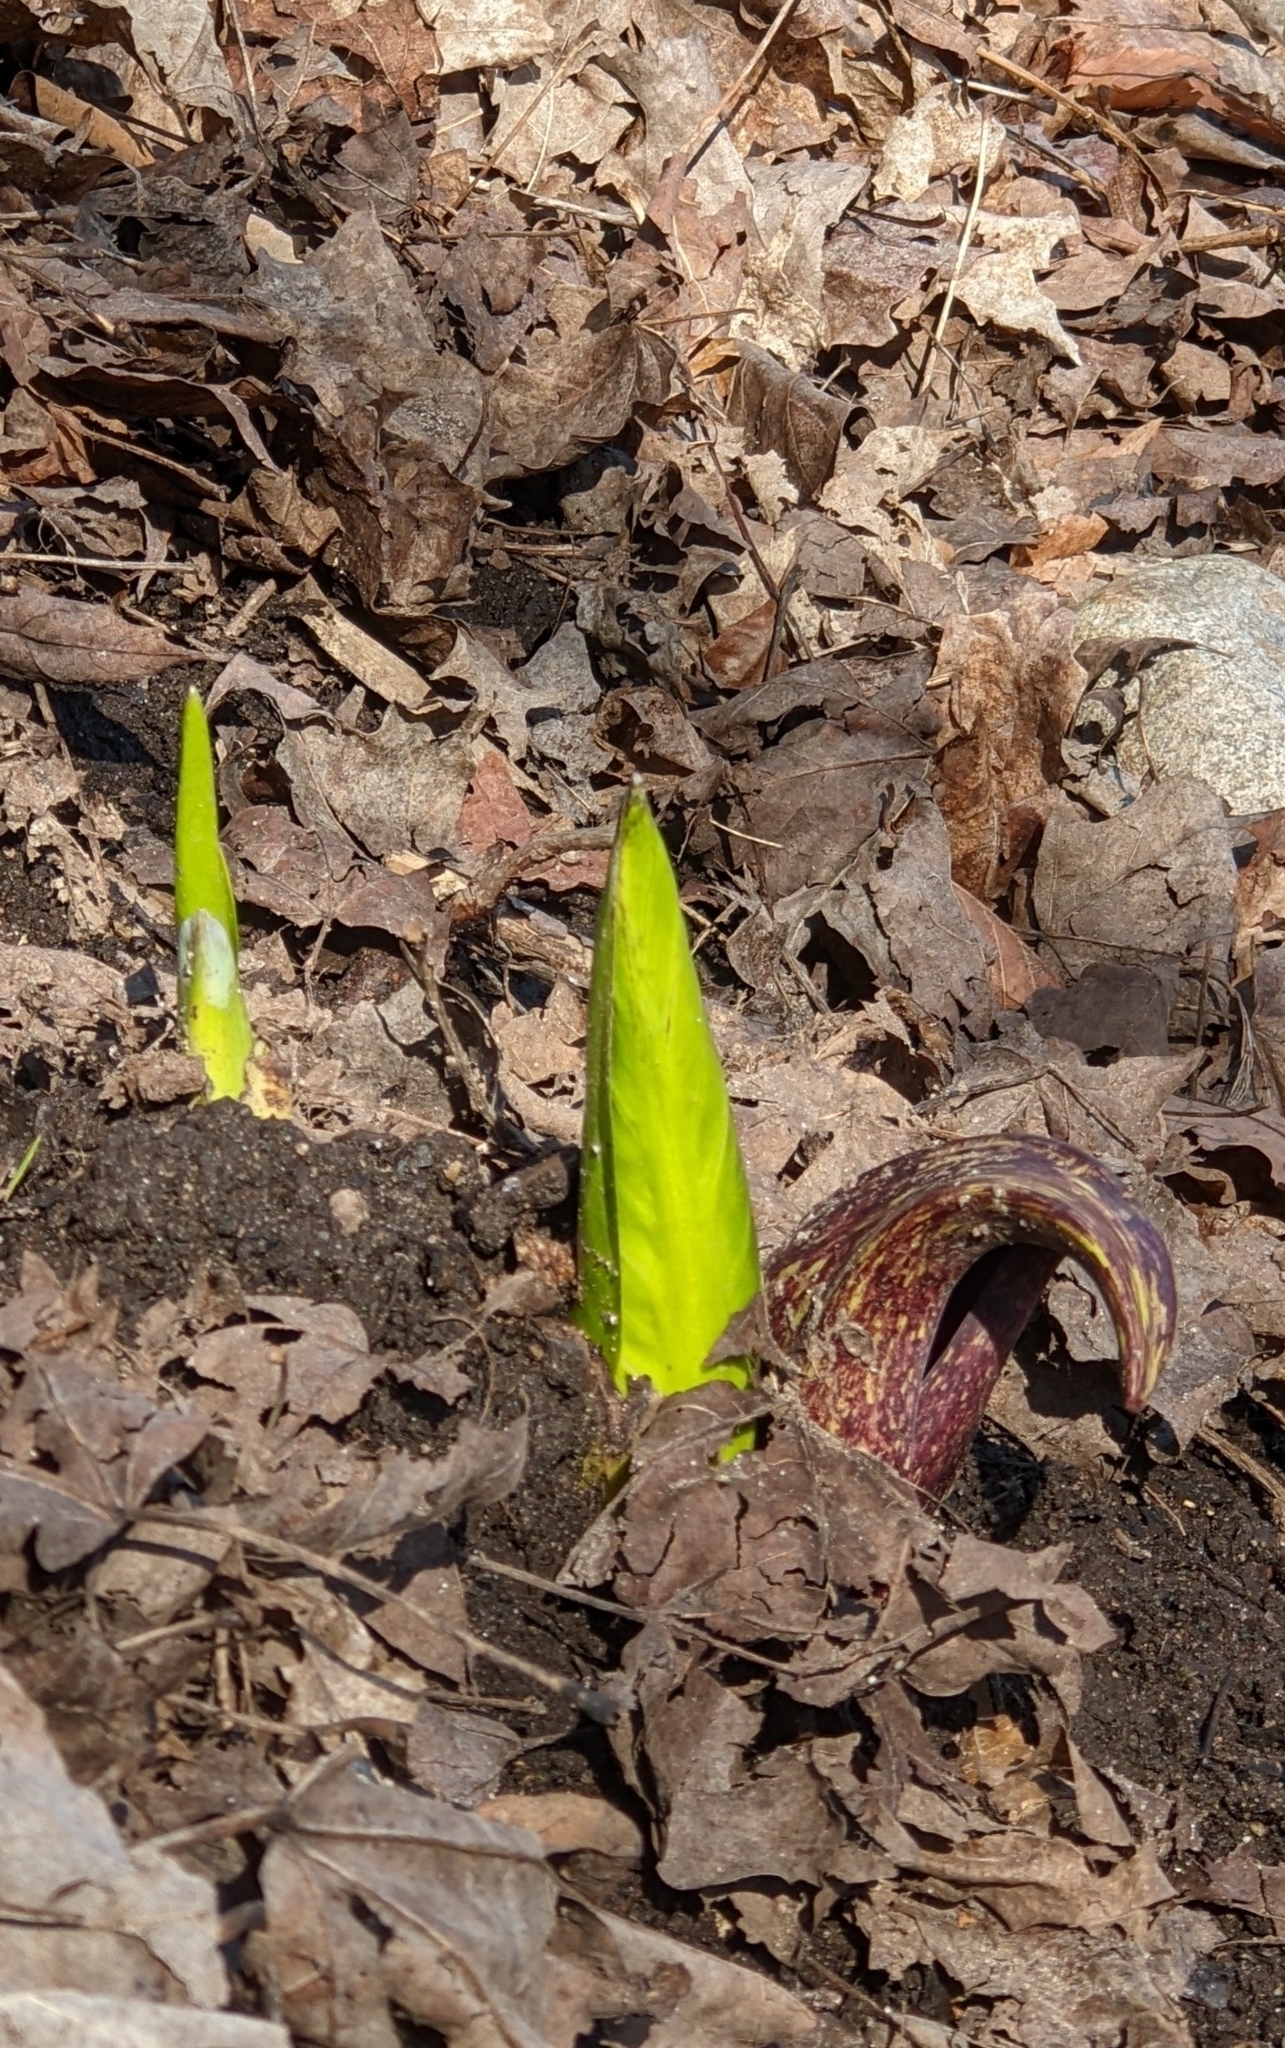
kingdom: Plantae
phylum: Tracheophyta
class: Liliopsida
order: Alismatales
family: Araceae
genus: Symplocarpus
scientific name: Symplocarpus foetidus
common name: Eastern skunk cabbage
